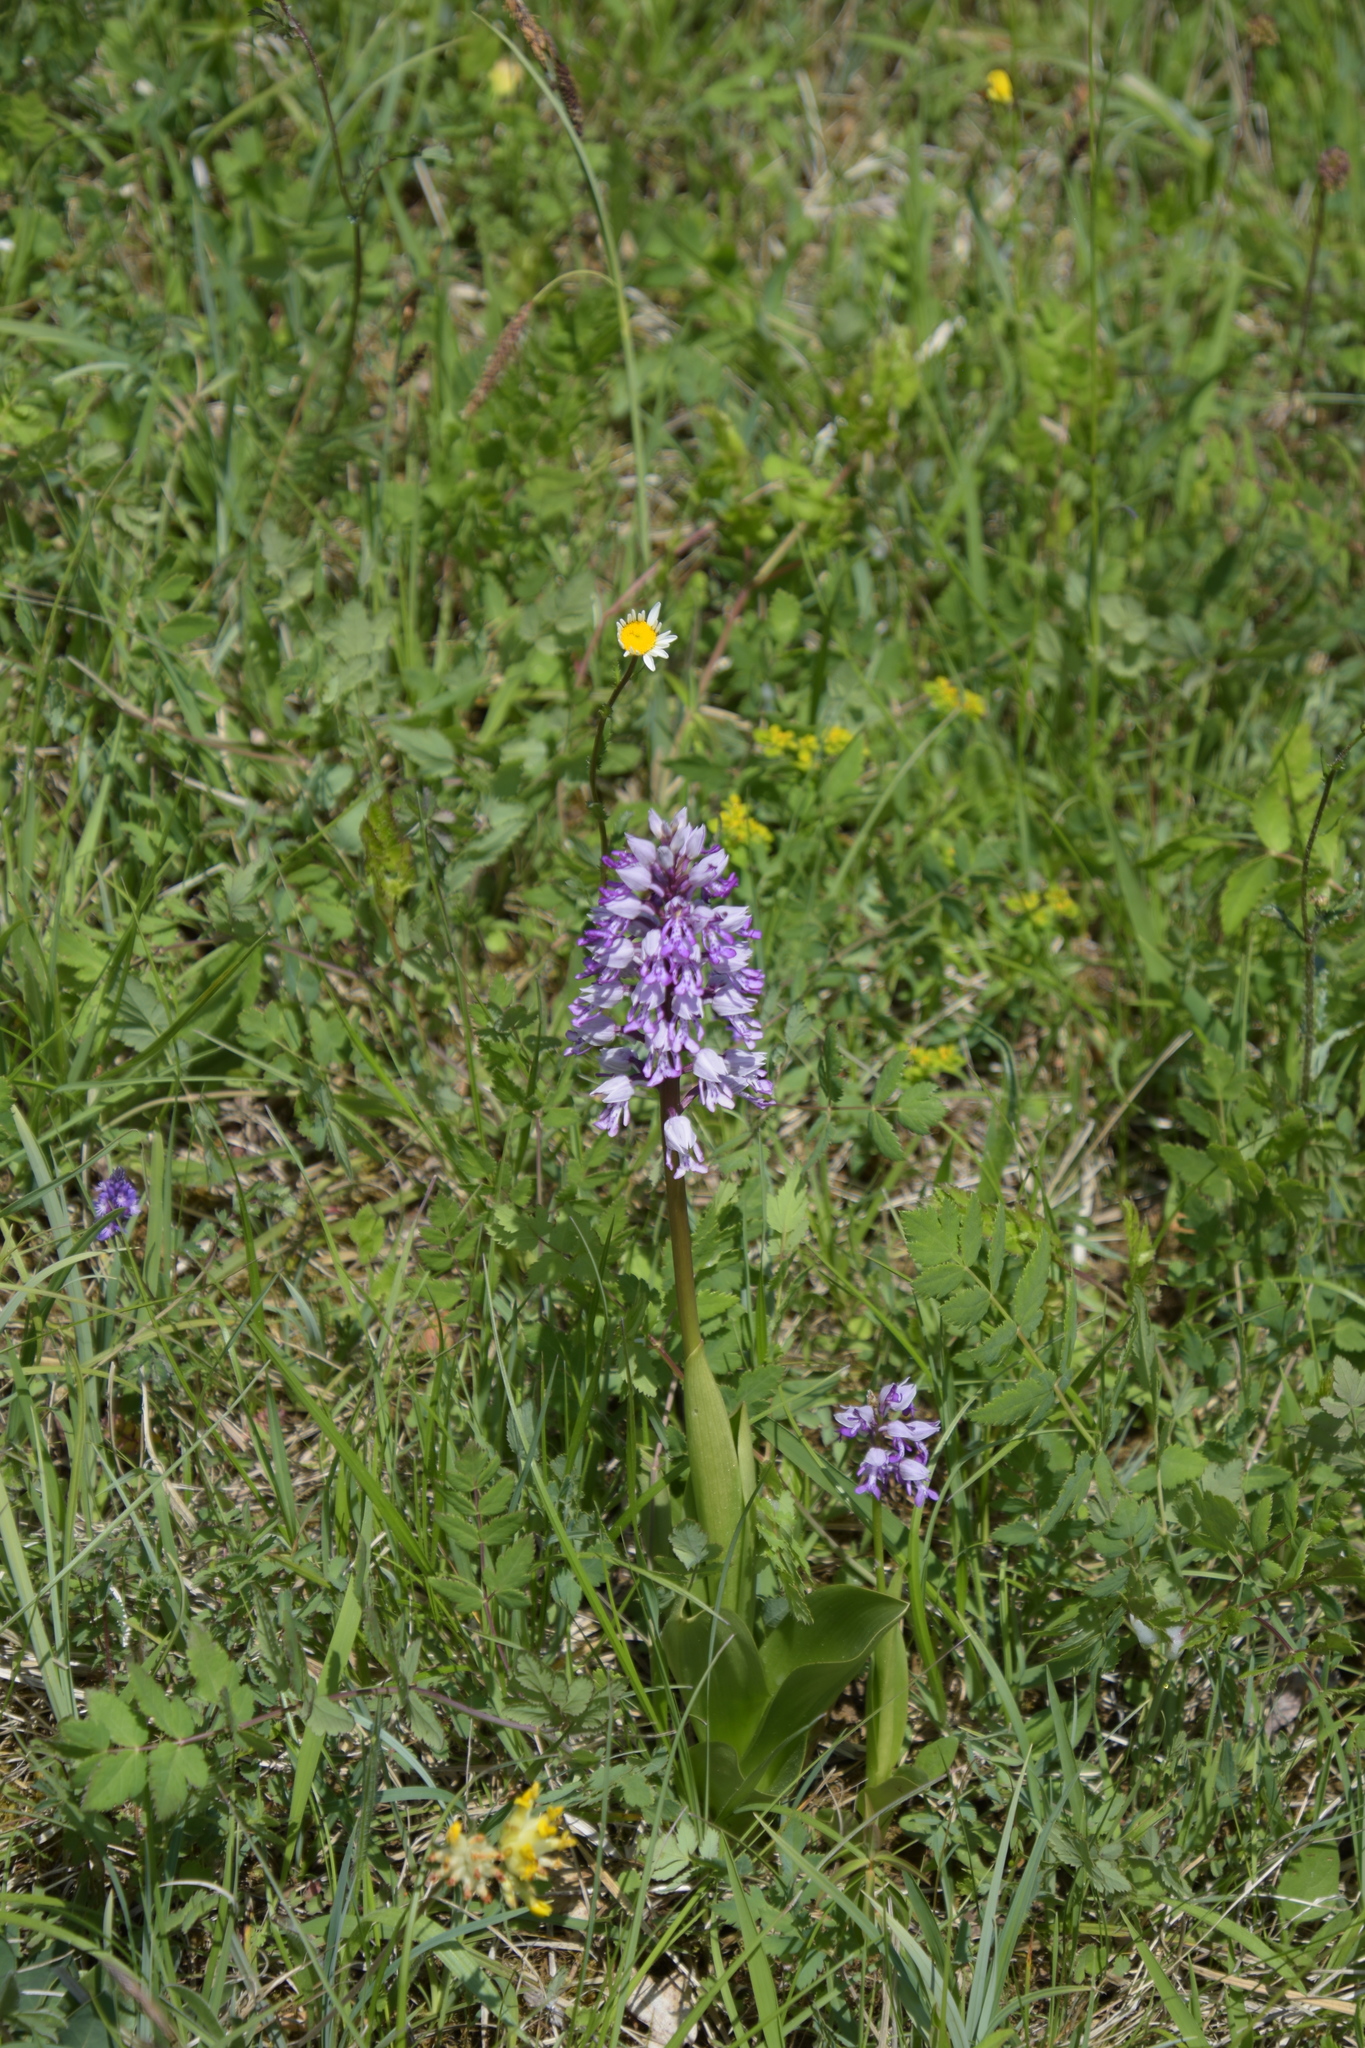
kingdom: Plantae
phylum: Tracheophyta
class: Liliopsida
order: Asparagales
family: Orchidaceae
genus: Orchis
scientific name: Orchis militaris
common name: Military orchid
